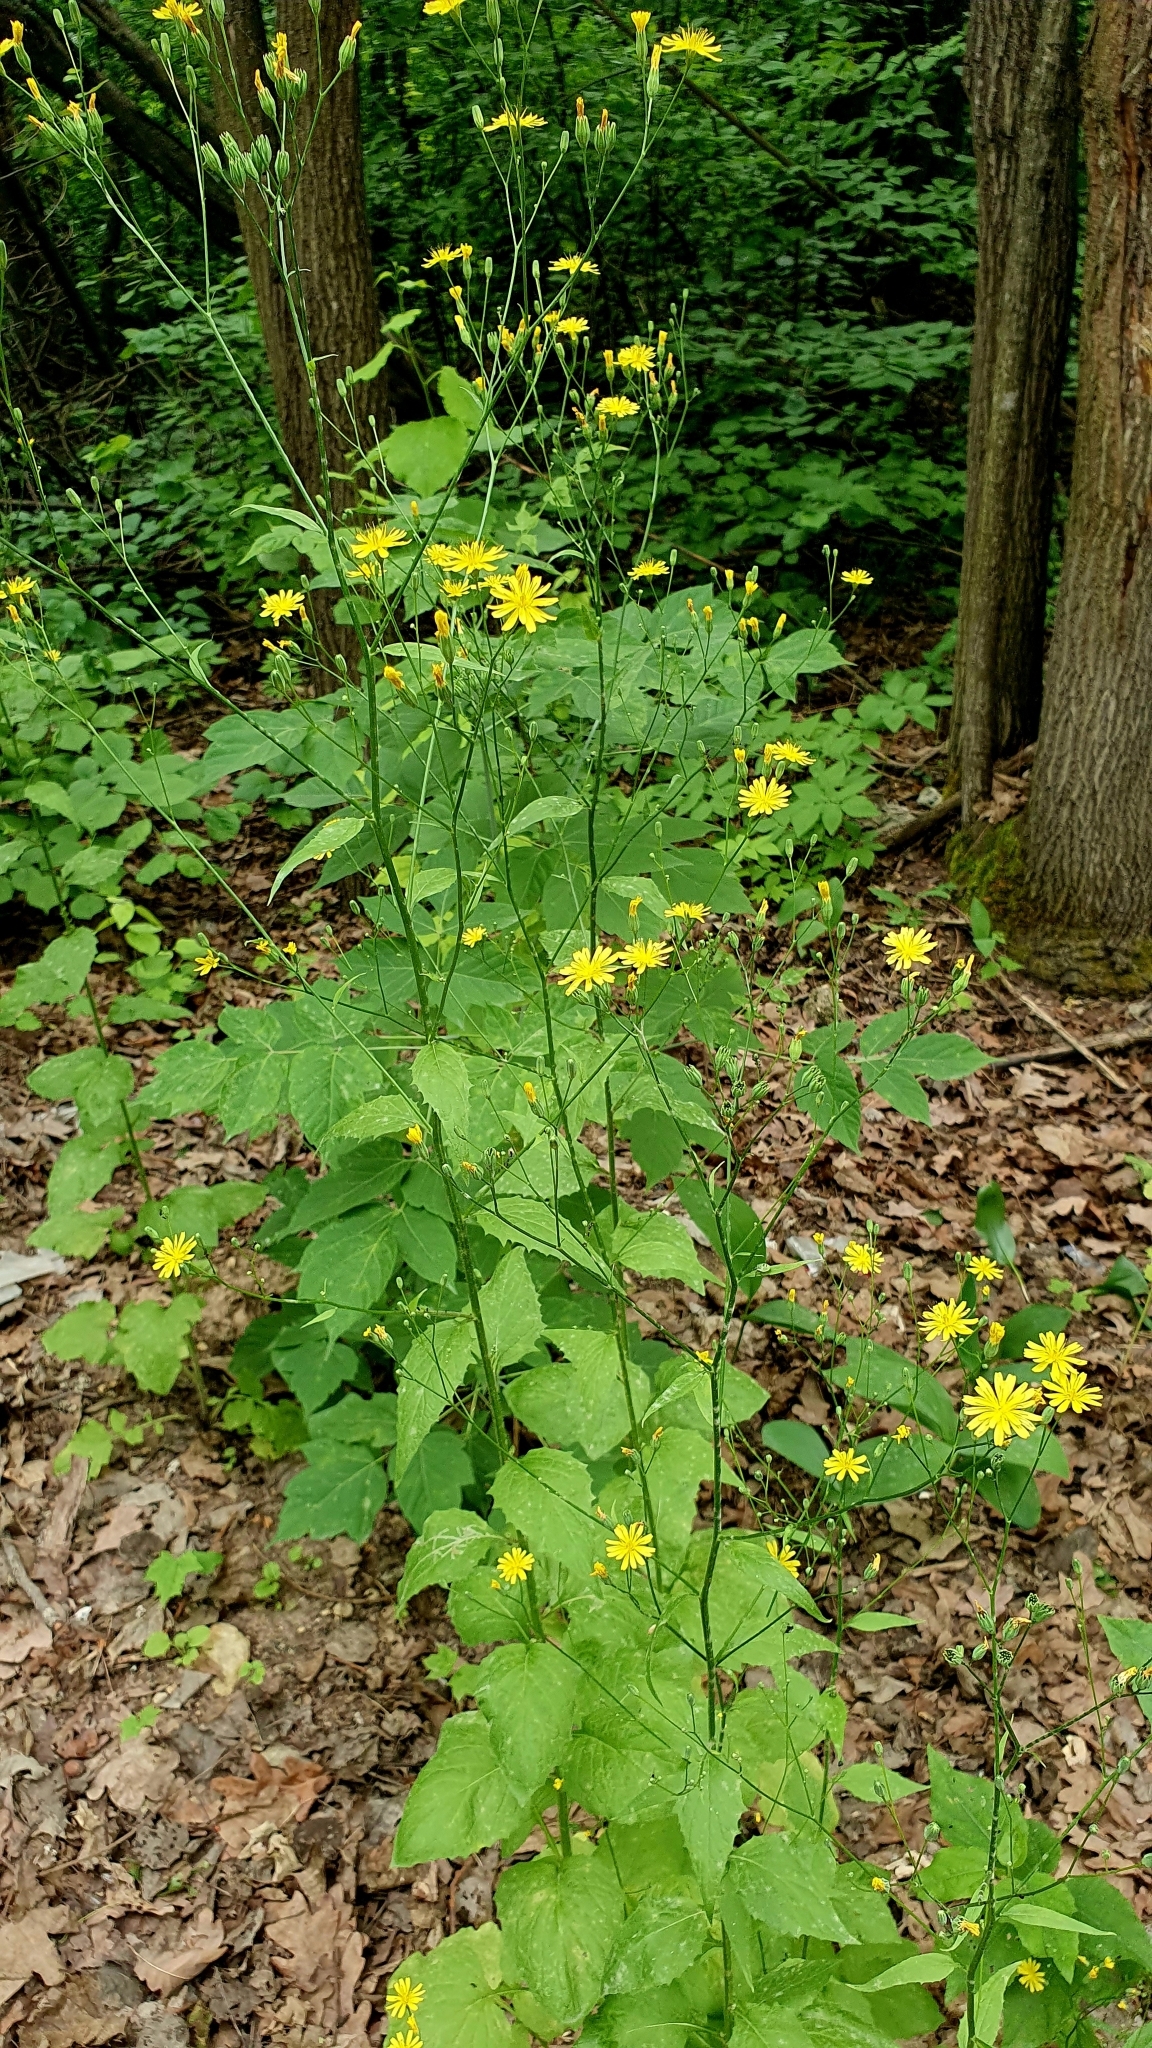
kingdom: Plantae
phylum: Tracheophyta
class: Magnoliopsida
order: Asterales
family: Asteraceae
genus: Lapsana
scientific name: Lapsana communis
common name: Nipplewort
